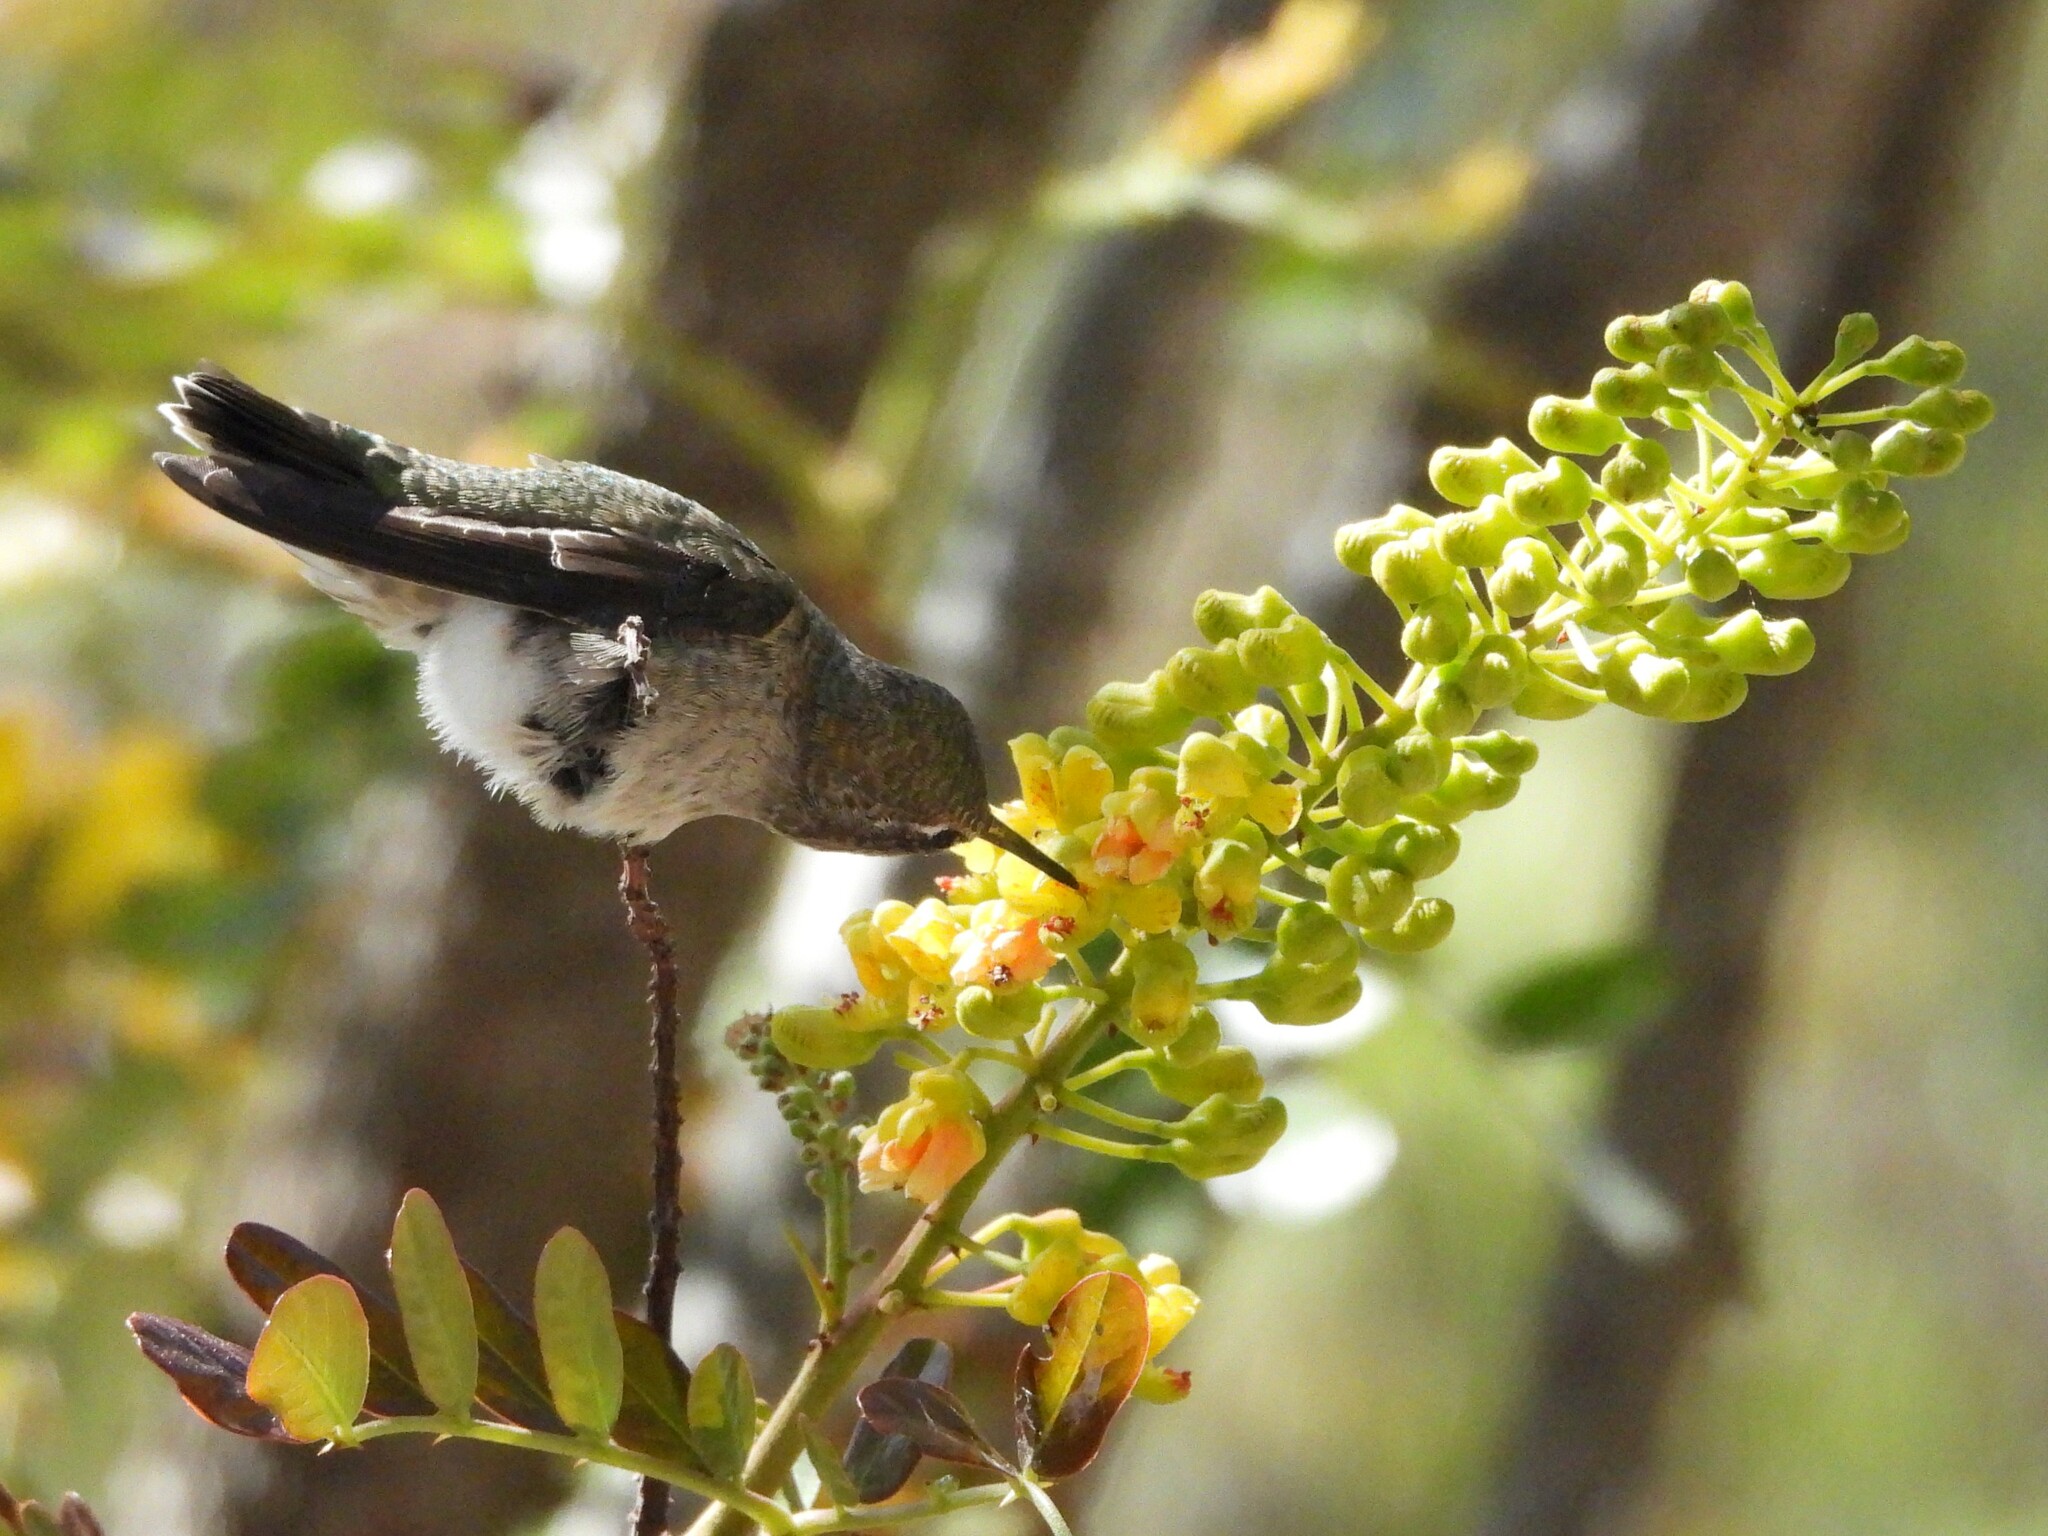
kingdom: Animalia
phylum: Chordata
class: Aves
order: Apodiformes
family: Trochilidae
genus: Calypte
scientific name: Calypte anna
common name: Anna's hummingbird
